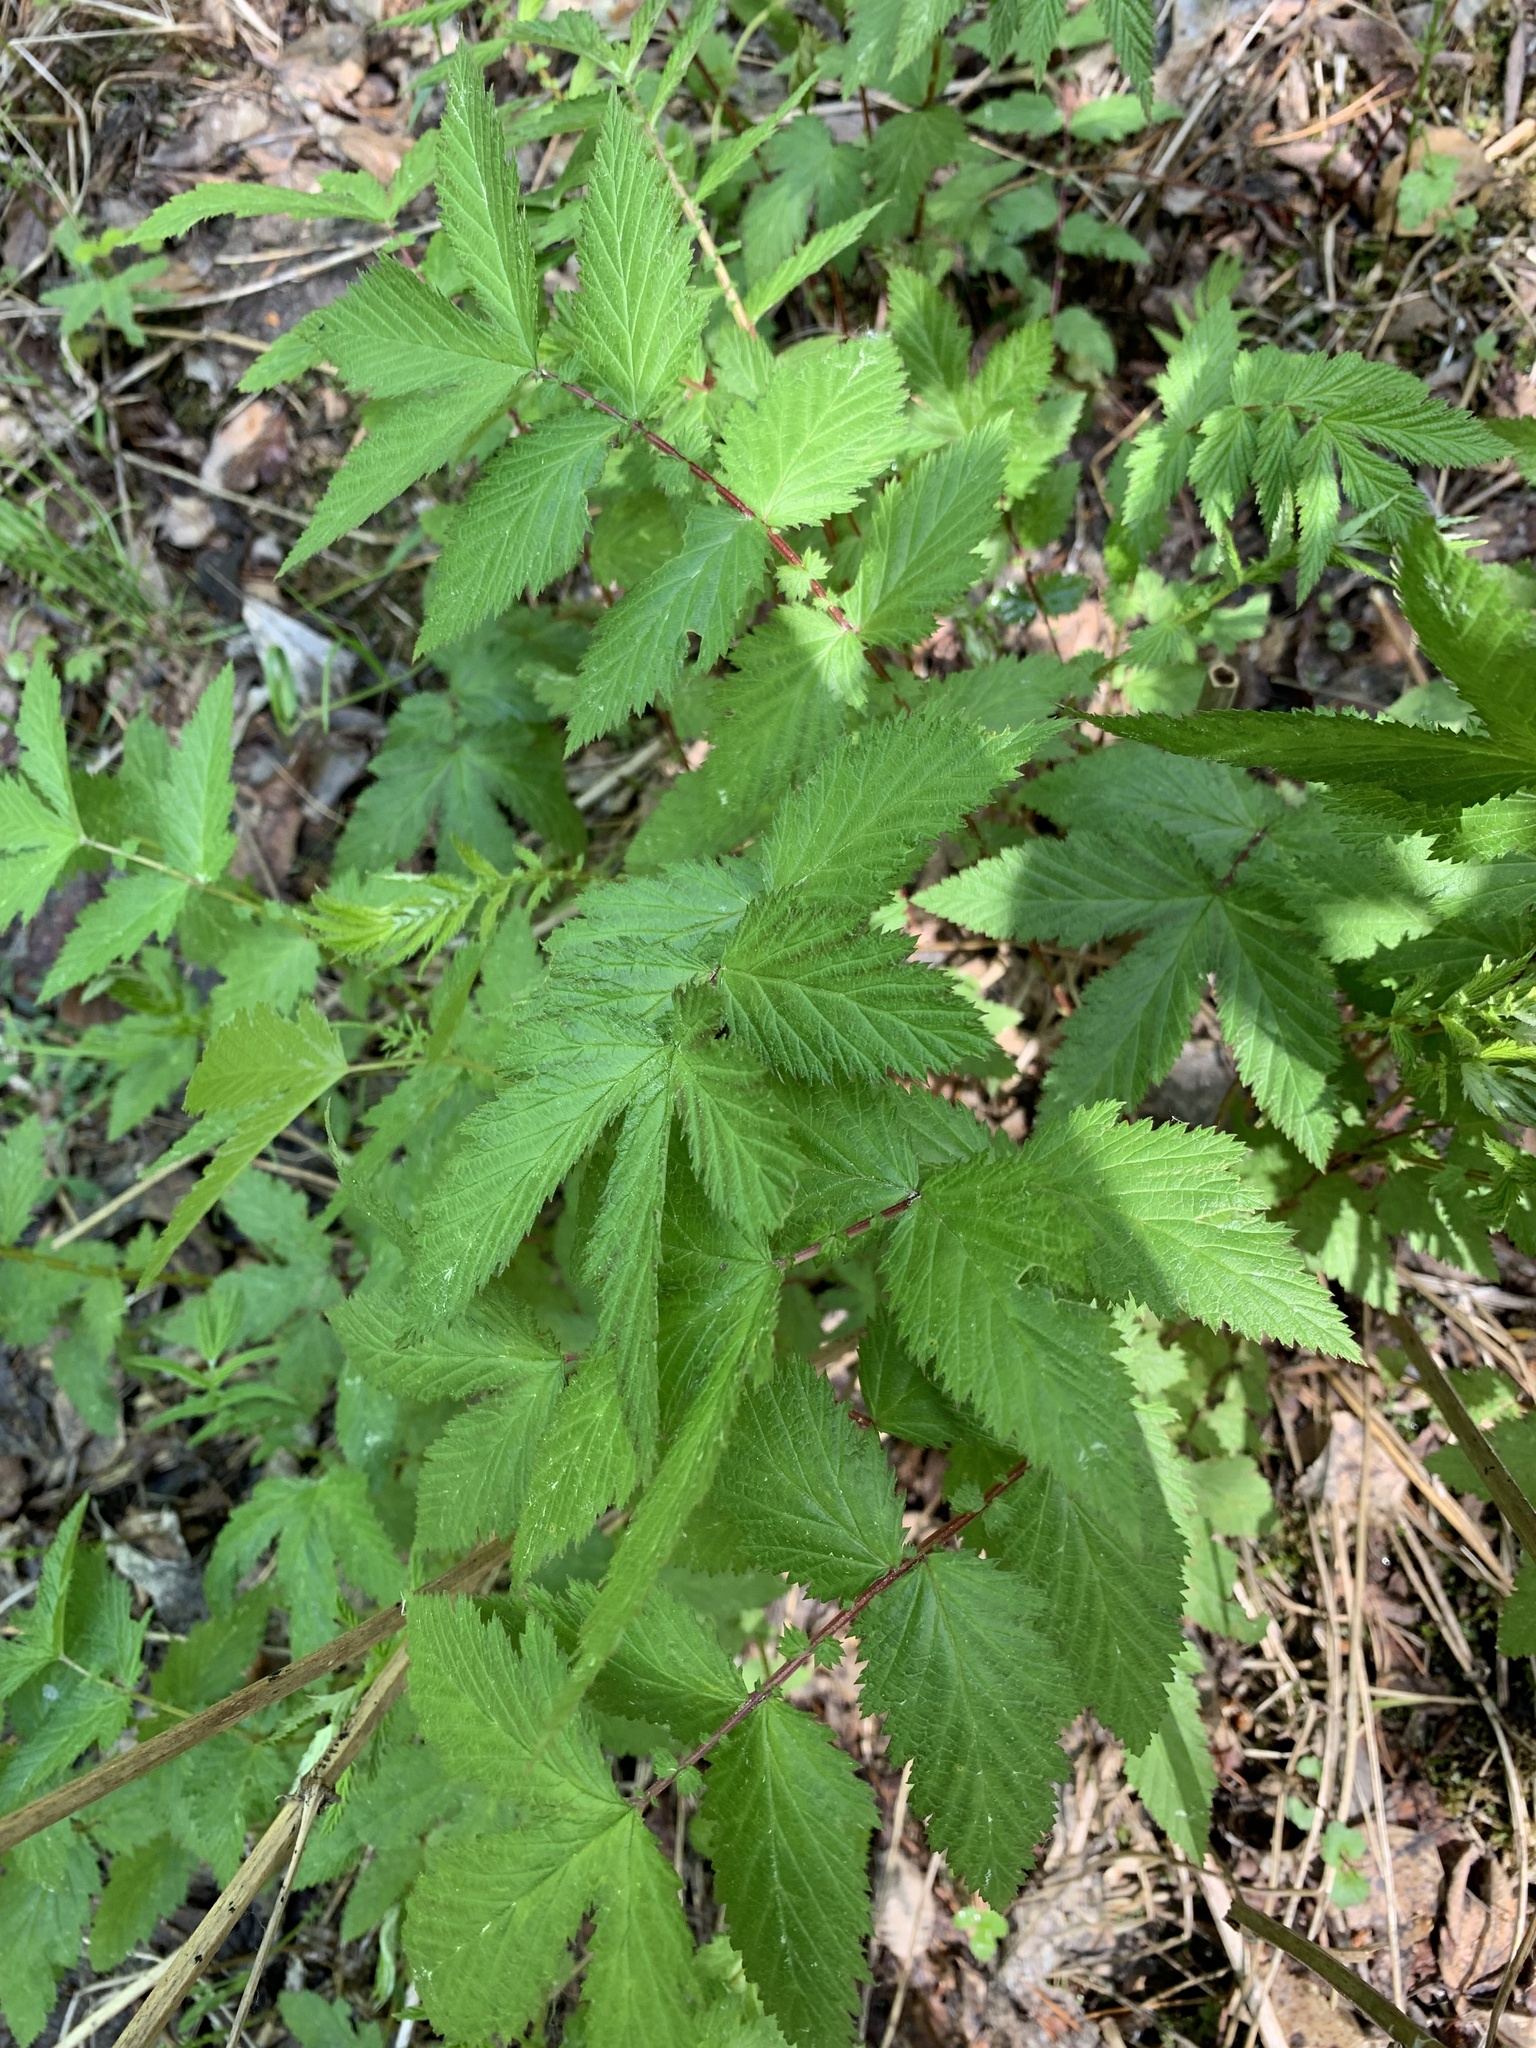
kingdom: Plantae
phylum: Tracheophyta
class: Magnoliopsida
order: Rosales
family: Rosaceae
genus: Filipendula
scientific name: Filipendula ulmaria
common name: Meadowsweet
